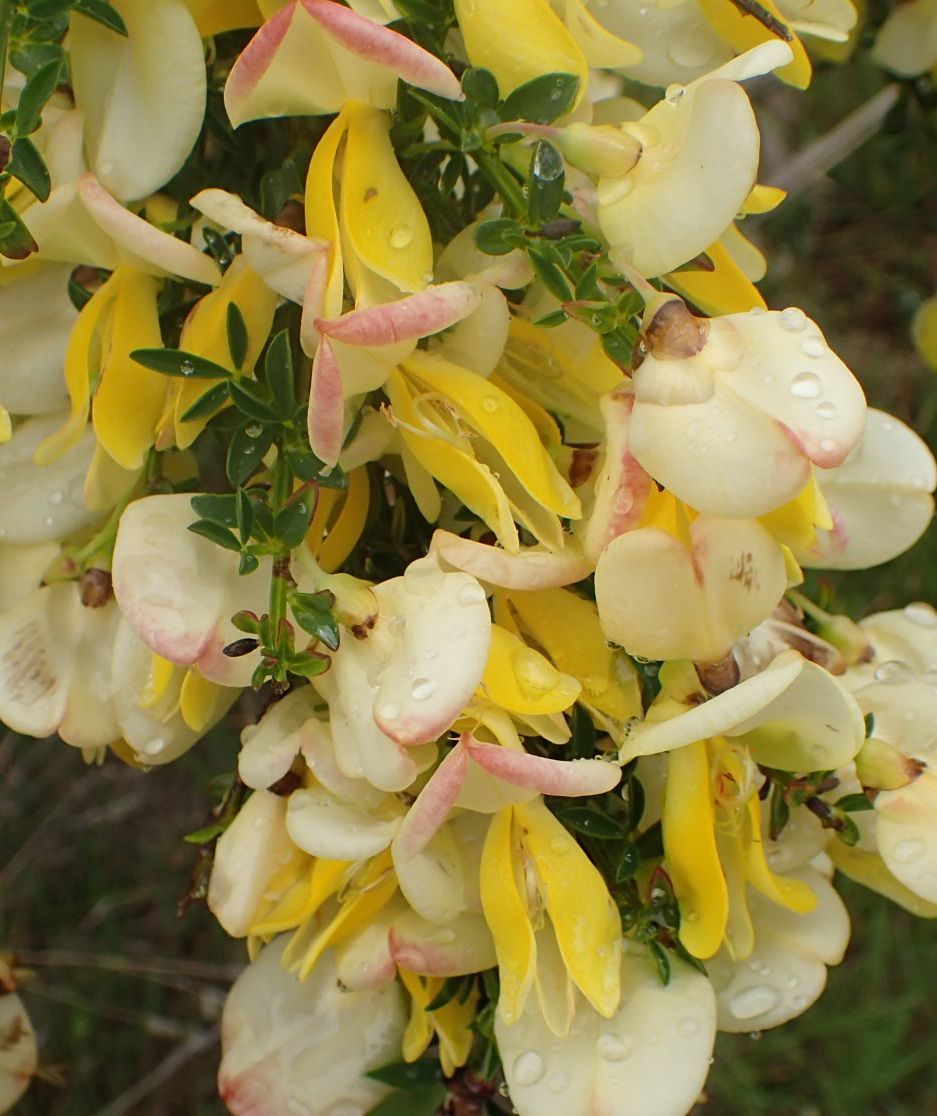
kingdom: Plantae
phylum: Tracheophyta
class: Magnoliopsida
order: Fabales
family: Fabaceae
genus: Cytisus
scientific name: Cytisus scoparius
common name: Scotch broom
